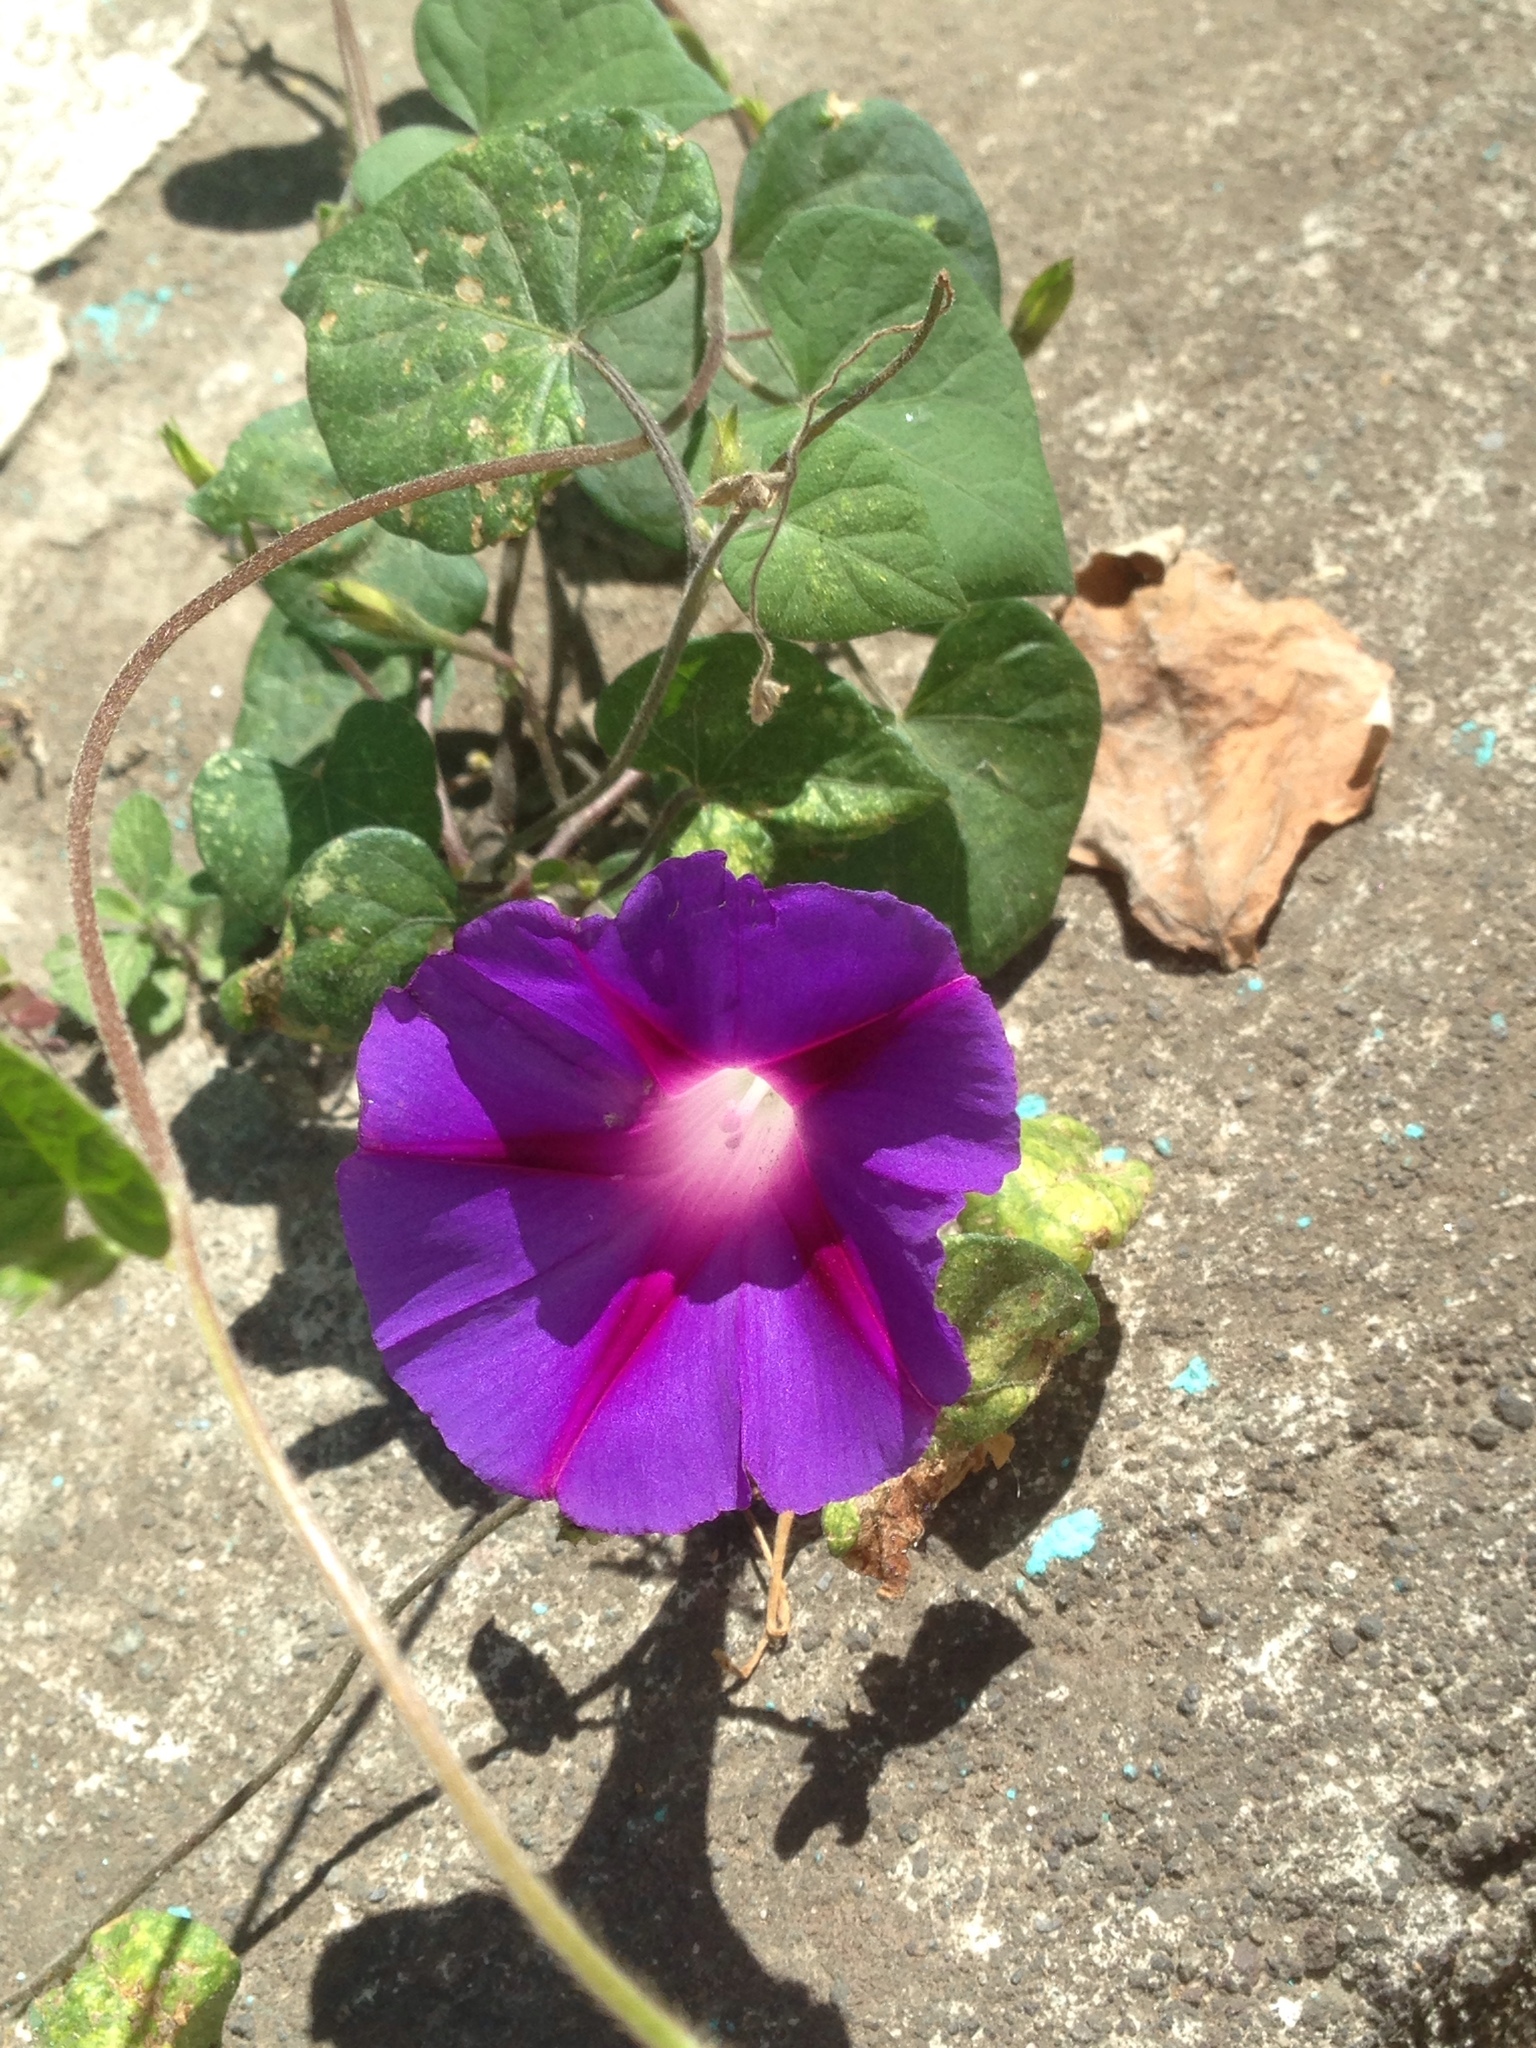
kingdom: Plantae
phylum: Tracheophyta
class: Magnoliopsida
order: Solanales
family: Convolvulaceae
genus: Ipomoea
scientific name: Ipomoea purpurea
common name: Common morning-glory
